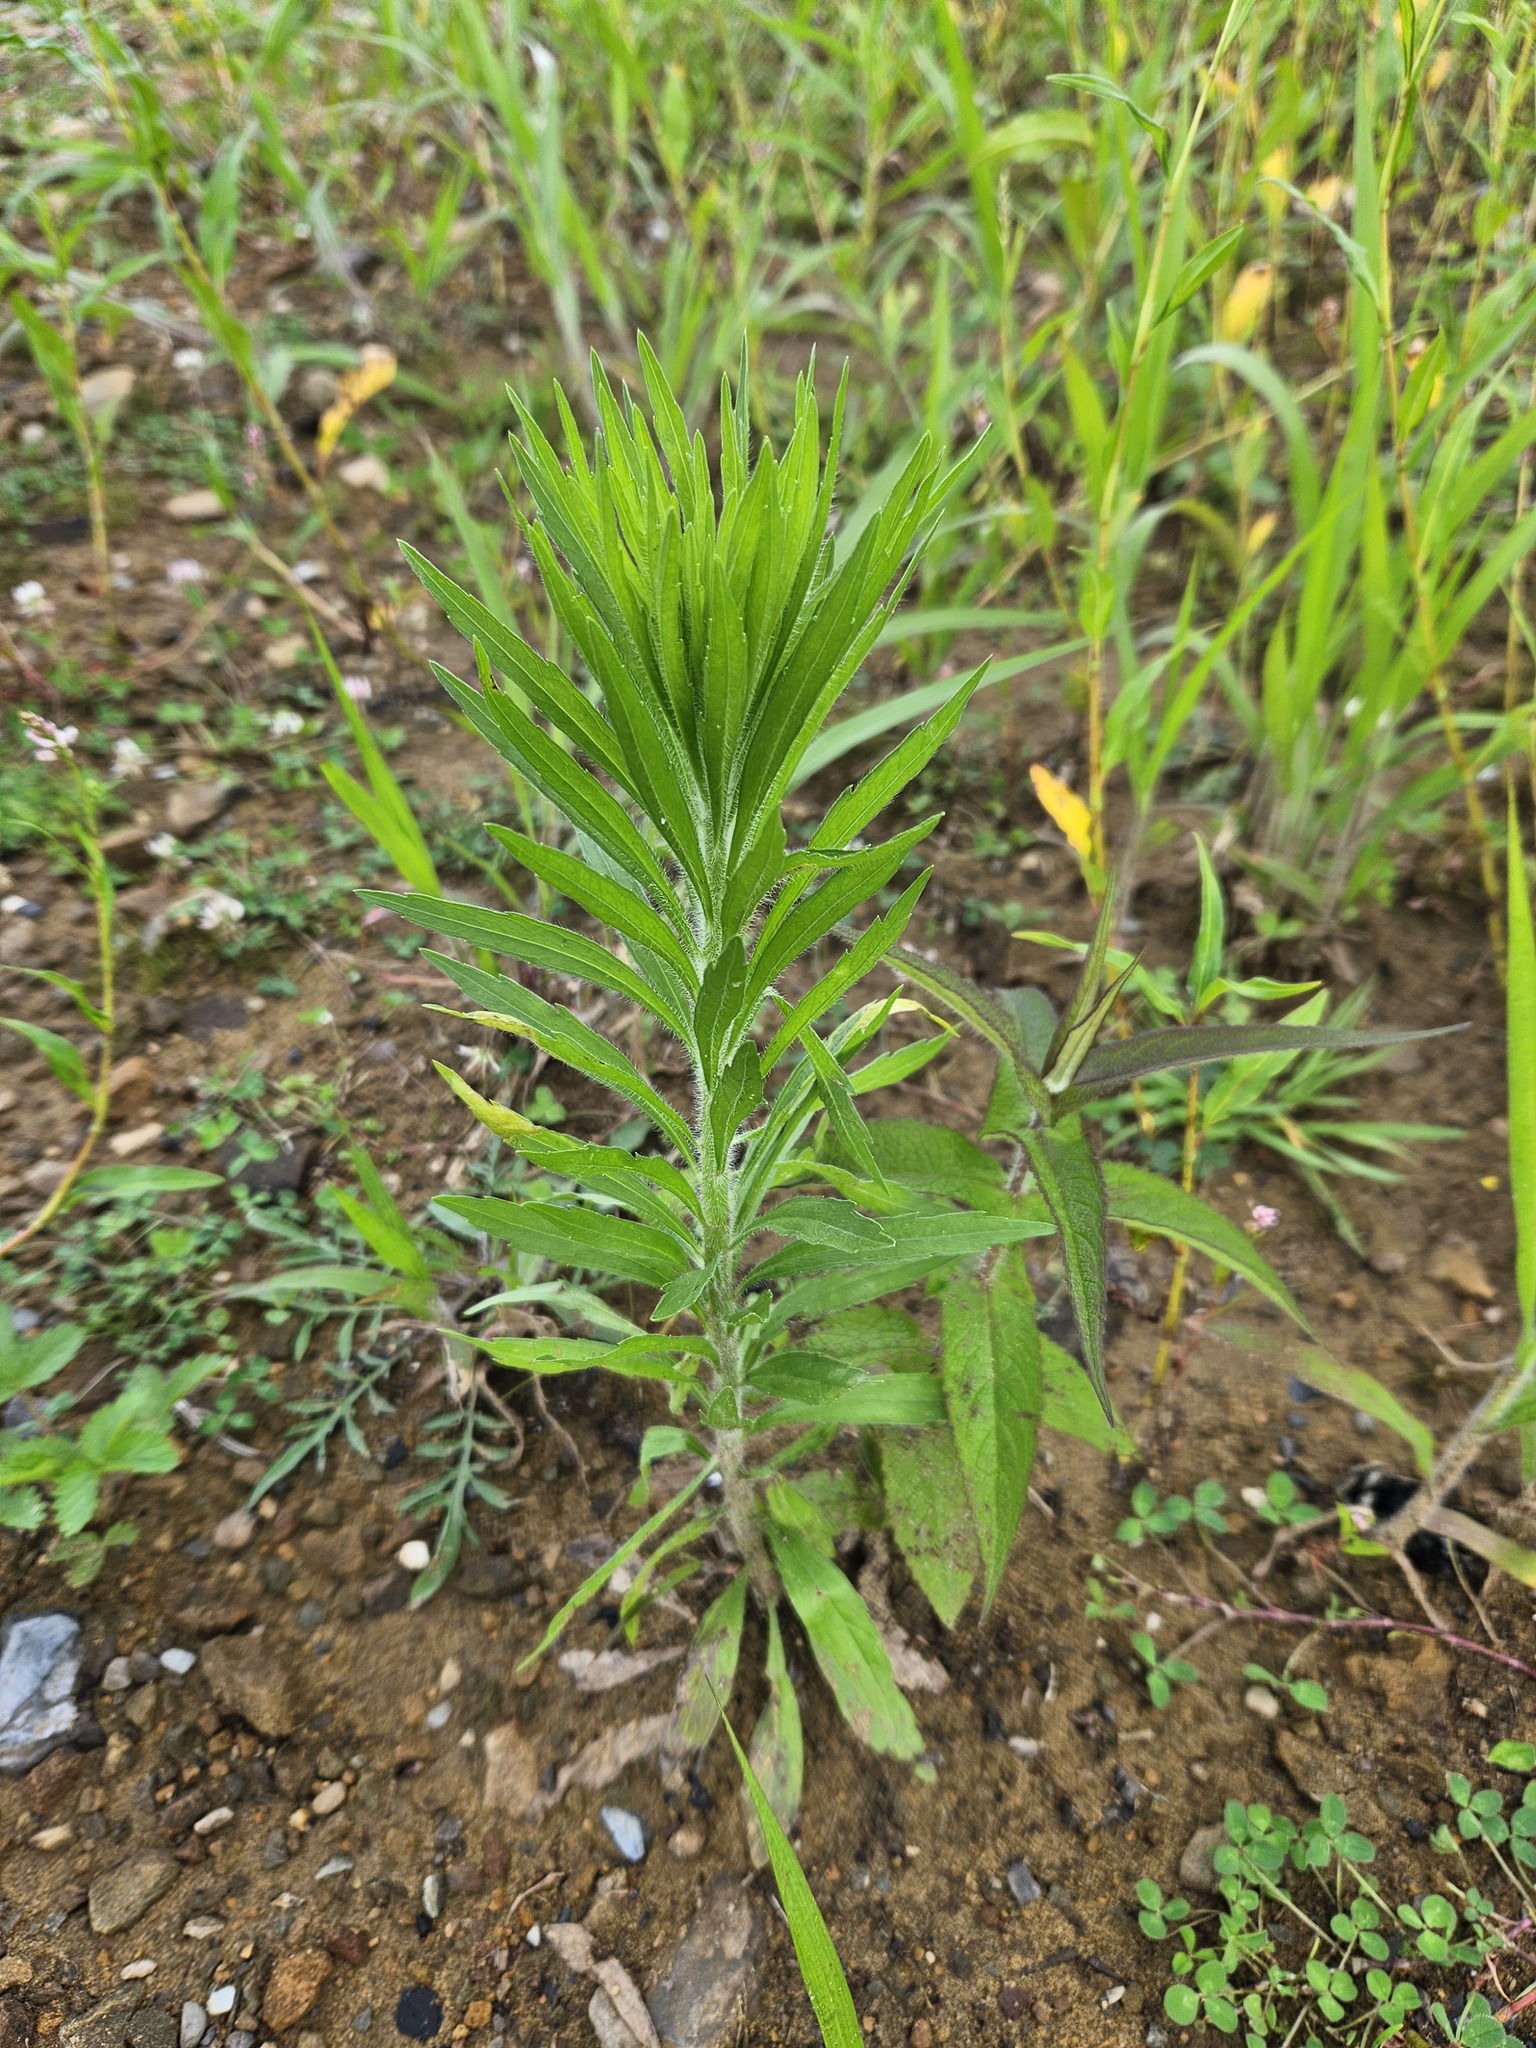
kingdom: Plantae
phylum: Tracheophyta
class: Magnoliopsida
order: Asterales
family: Asteraceae
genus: Erigeron
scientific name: Erigeron canadensis
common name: Canadian fleabane
